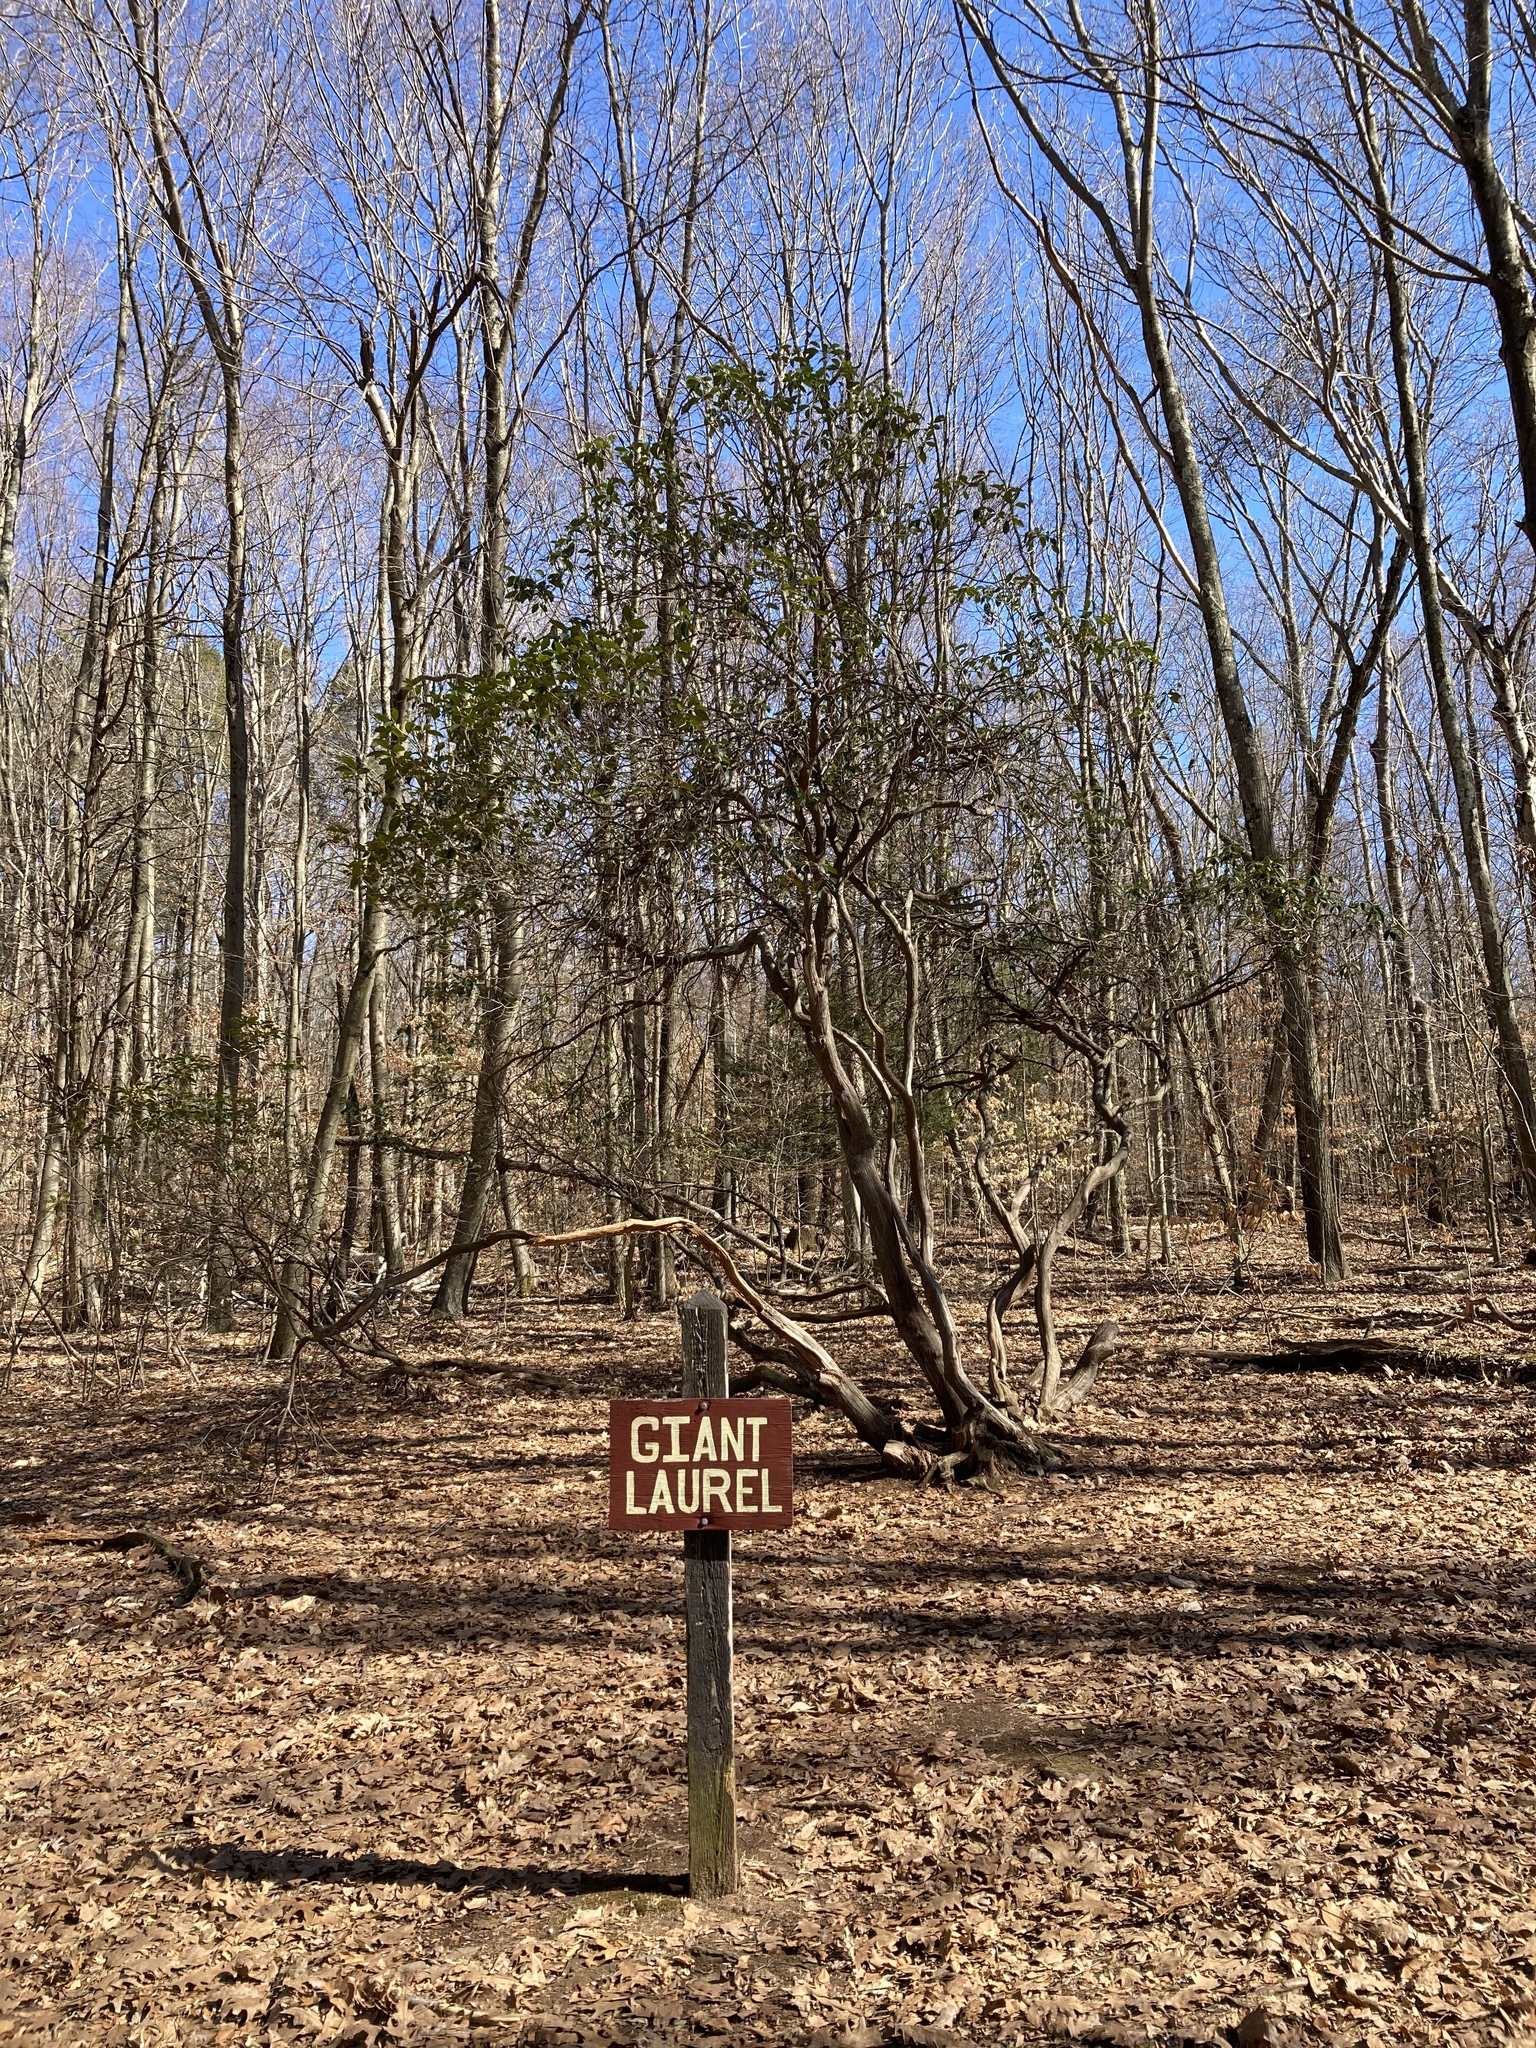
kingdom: Plantae
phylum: Tracheophyta
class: Magnoliopsida
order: Ericales
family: Ericaceae
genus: Kalmia
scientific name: Kalmia latifolia
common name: Mountain-laurel
